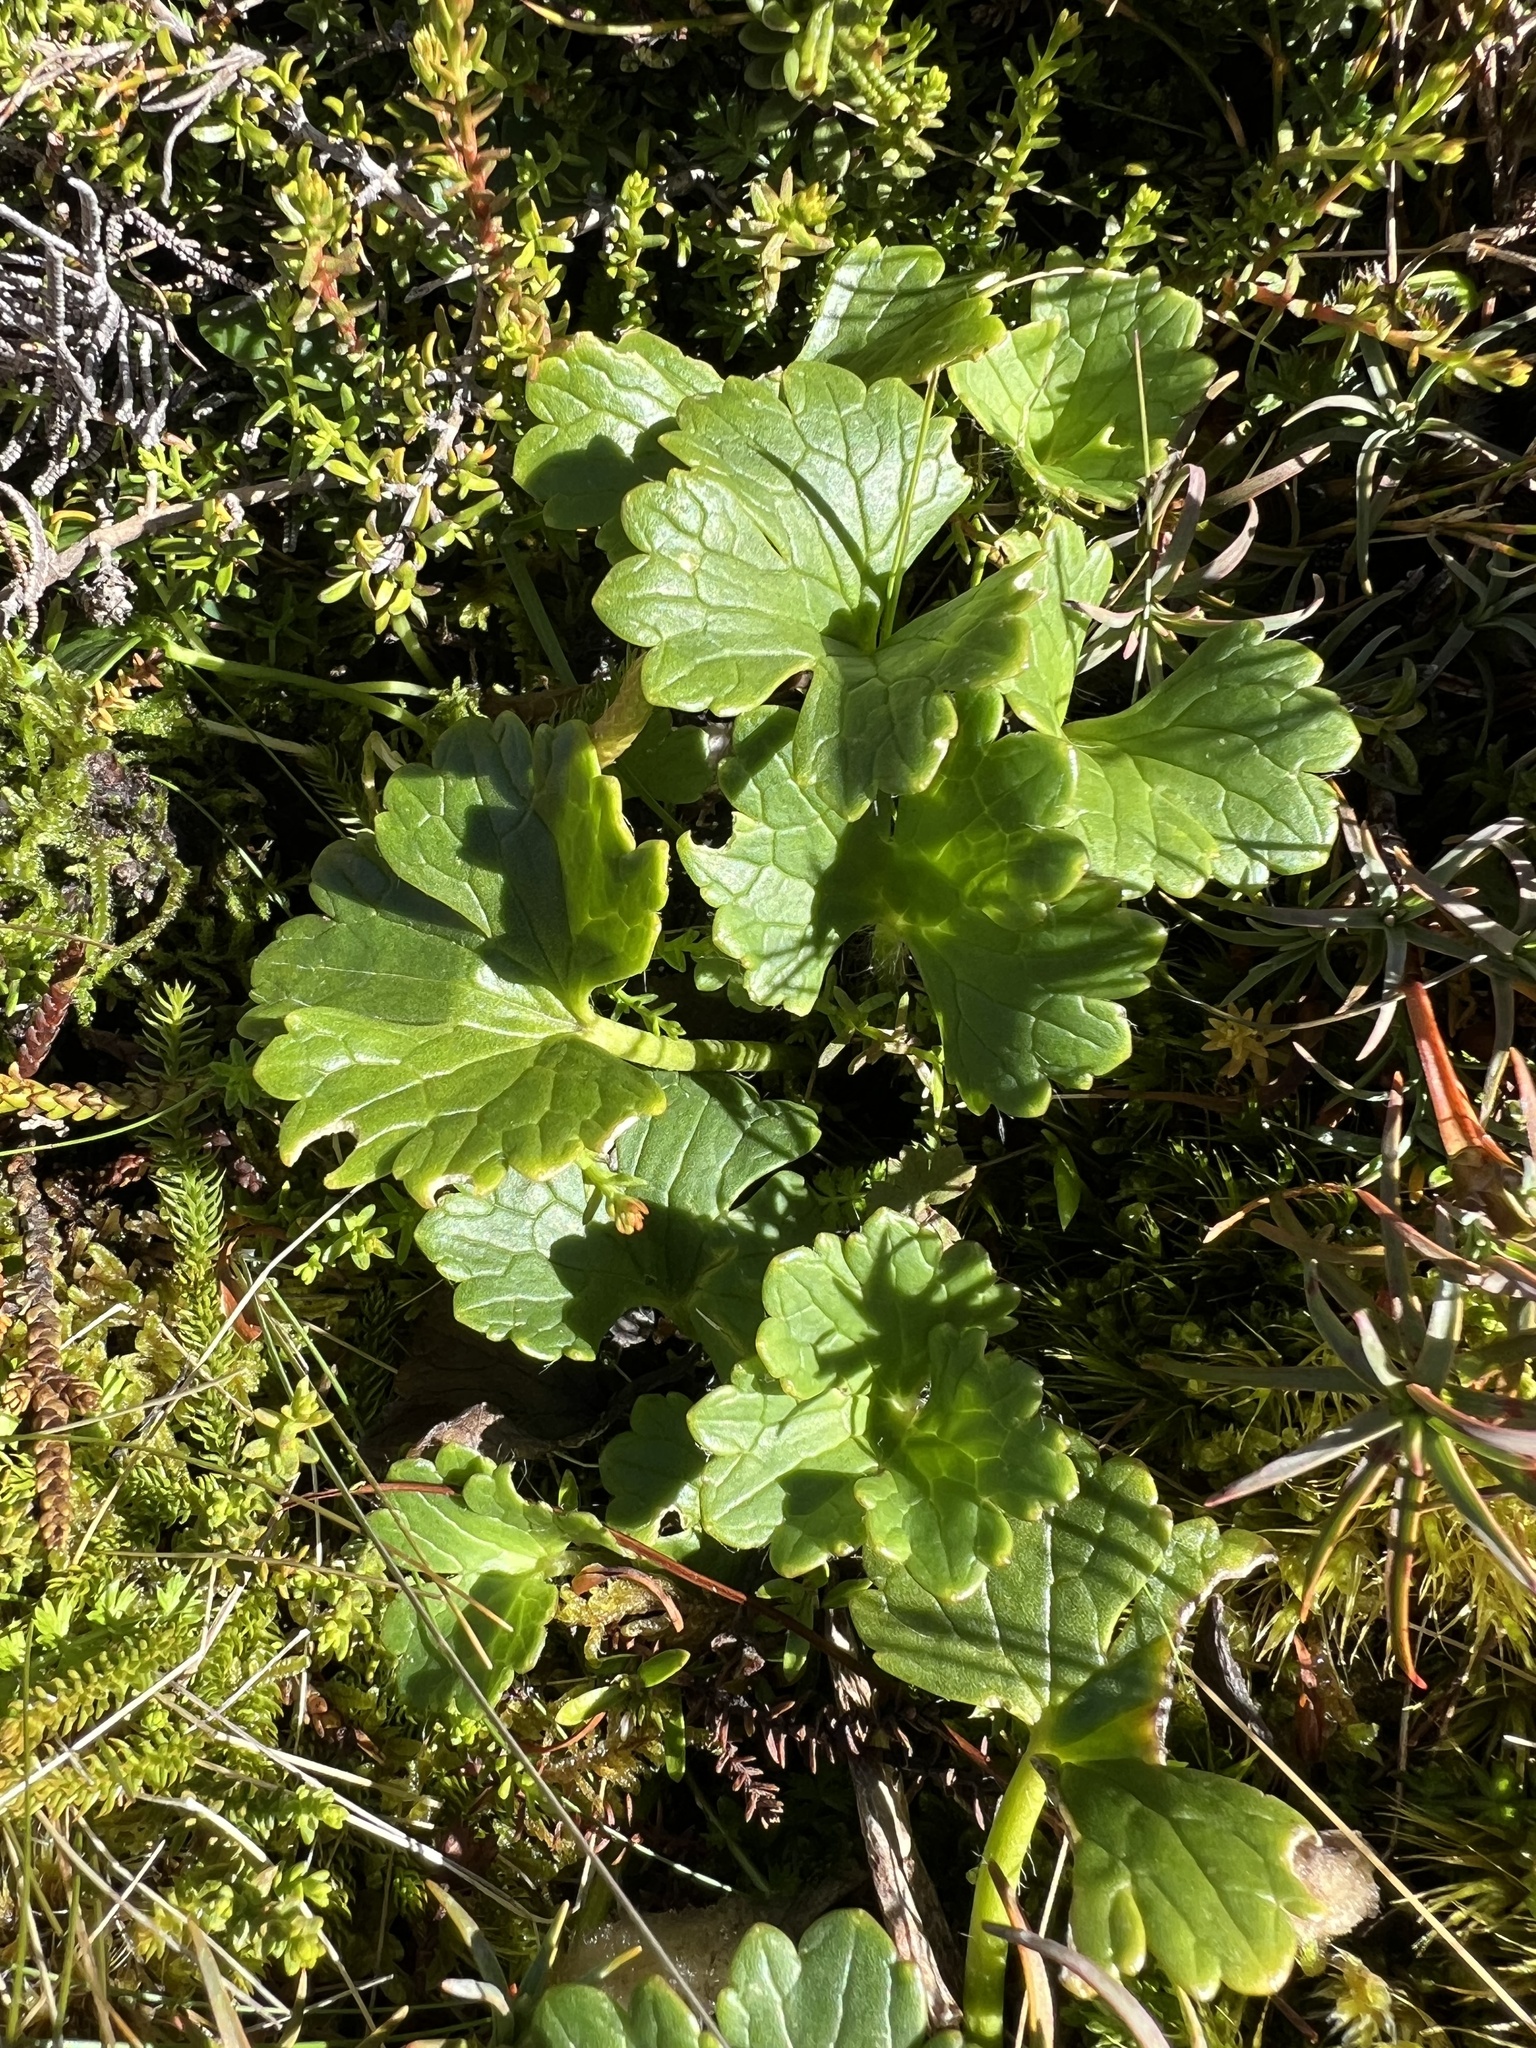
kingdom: Plantae
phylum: Tracheophyta
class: Magnoliopsida
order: Ranunculales
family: Ranunculaceae
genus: Ranunculus
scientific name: Ranunculus nivicola
